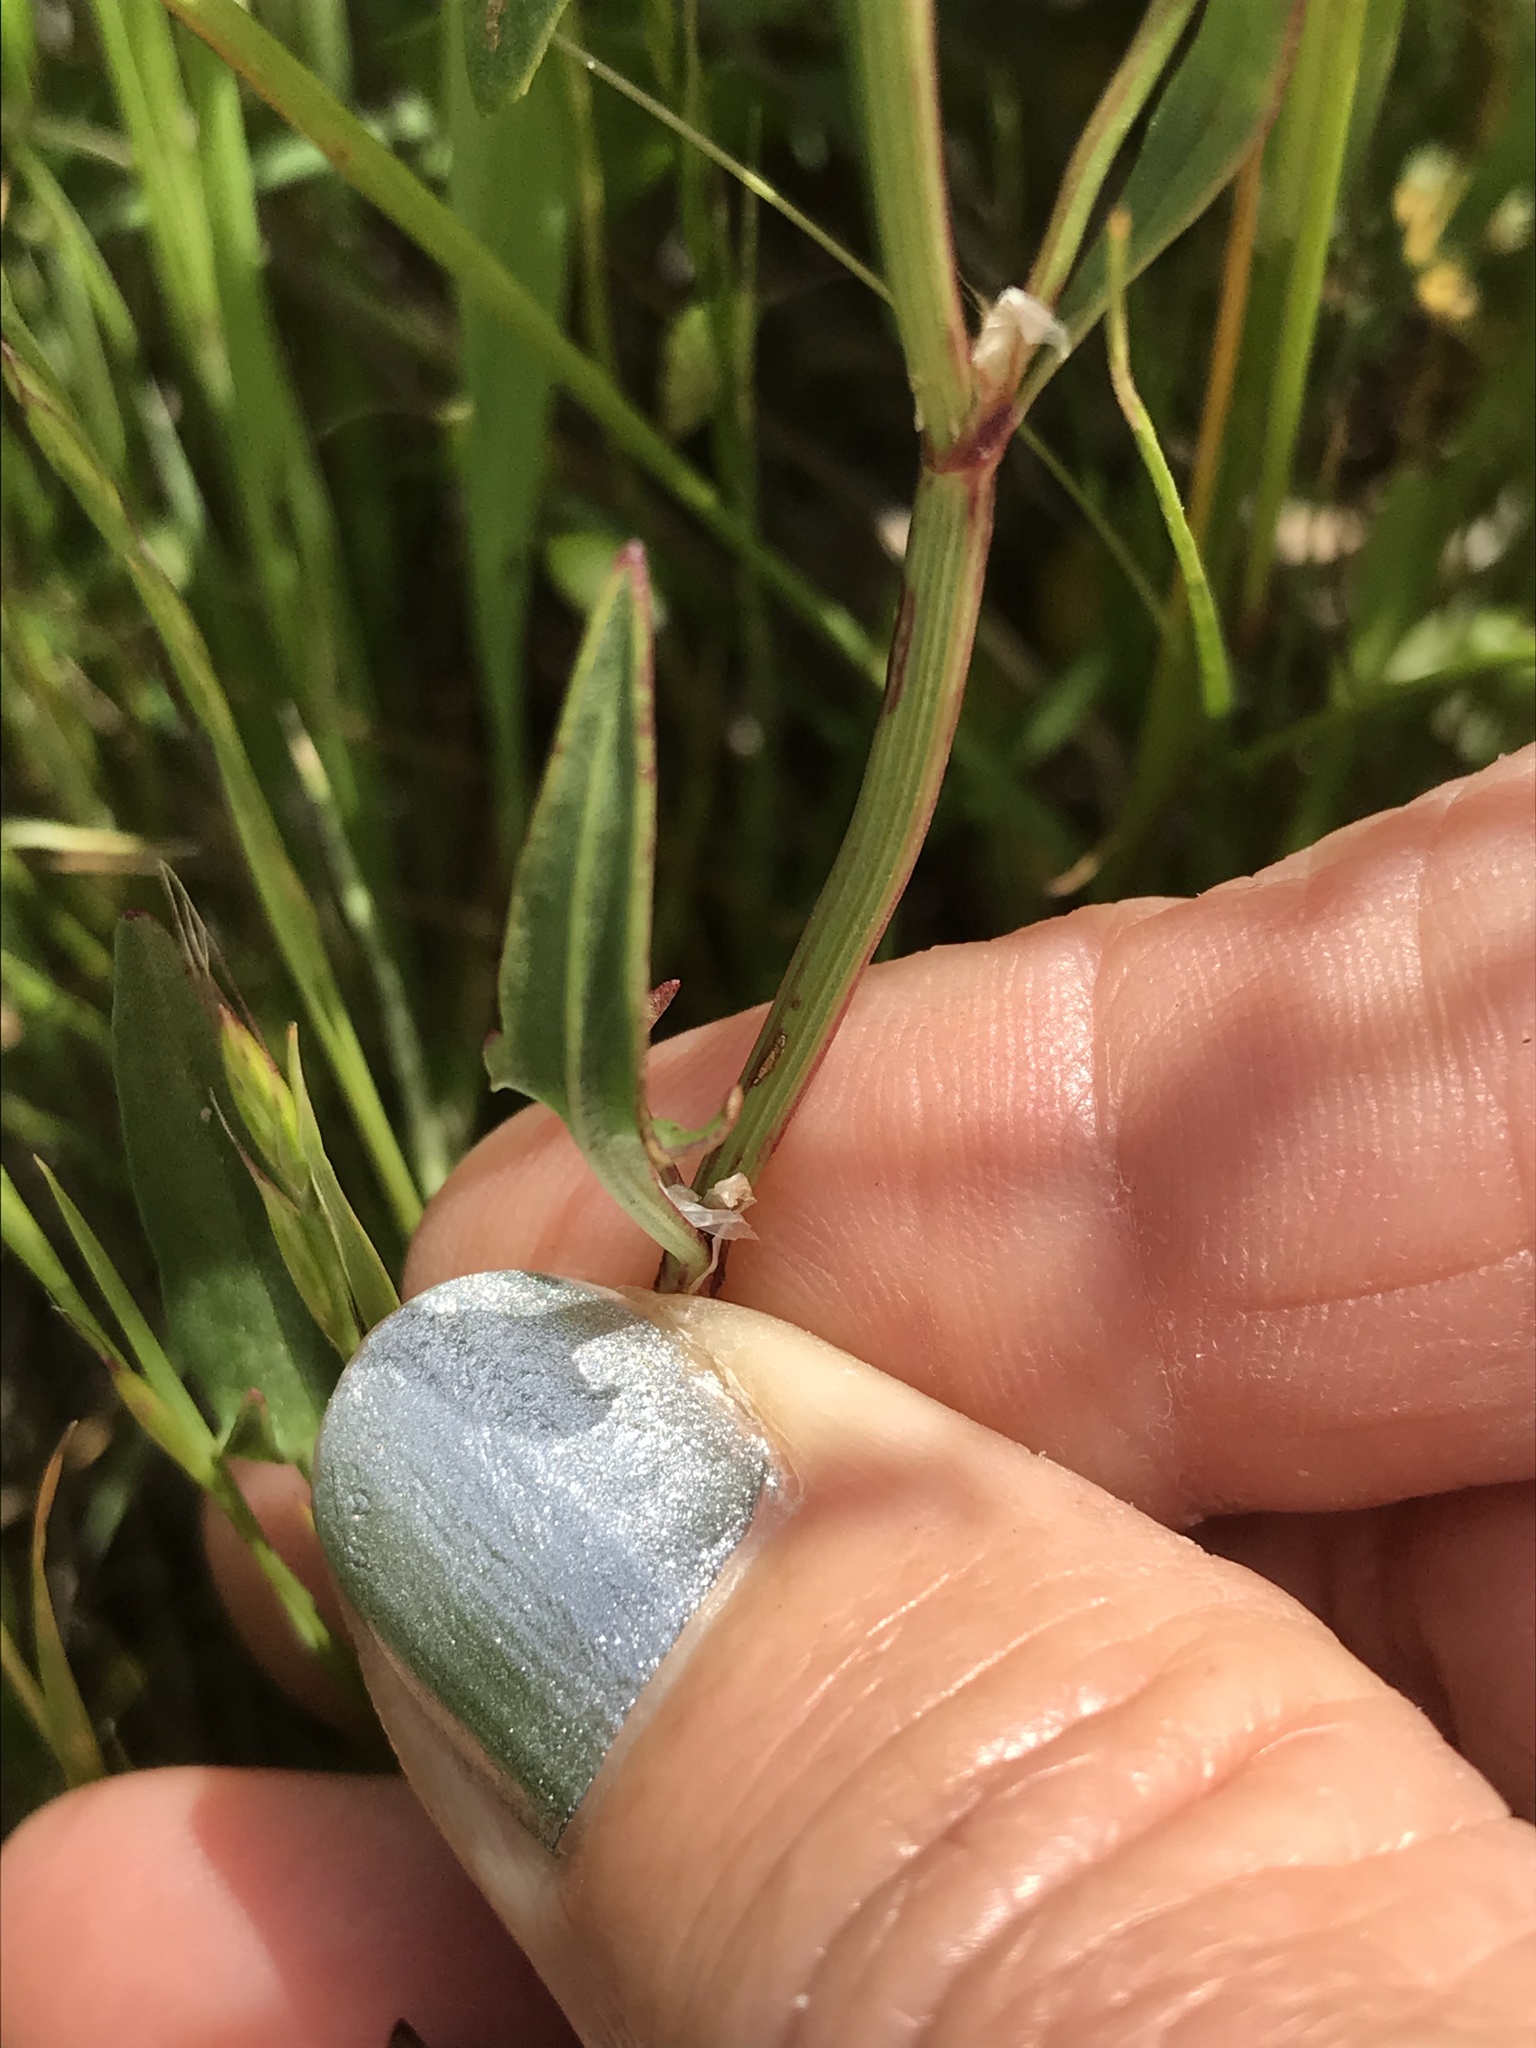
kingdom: Plantae
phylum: Tracheophyta
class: Magnoliopsida
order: Caryophyllales
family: Polygonaceae
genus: Rumex
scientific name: Rumex acetosella
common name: Common sheep sorrel
